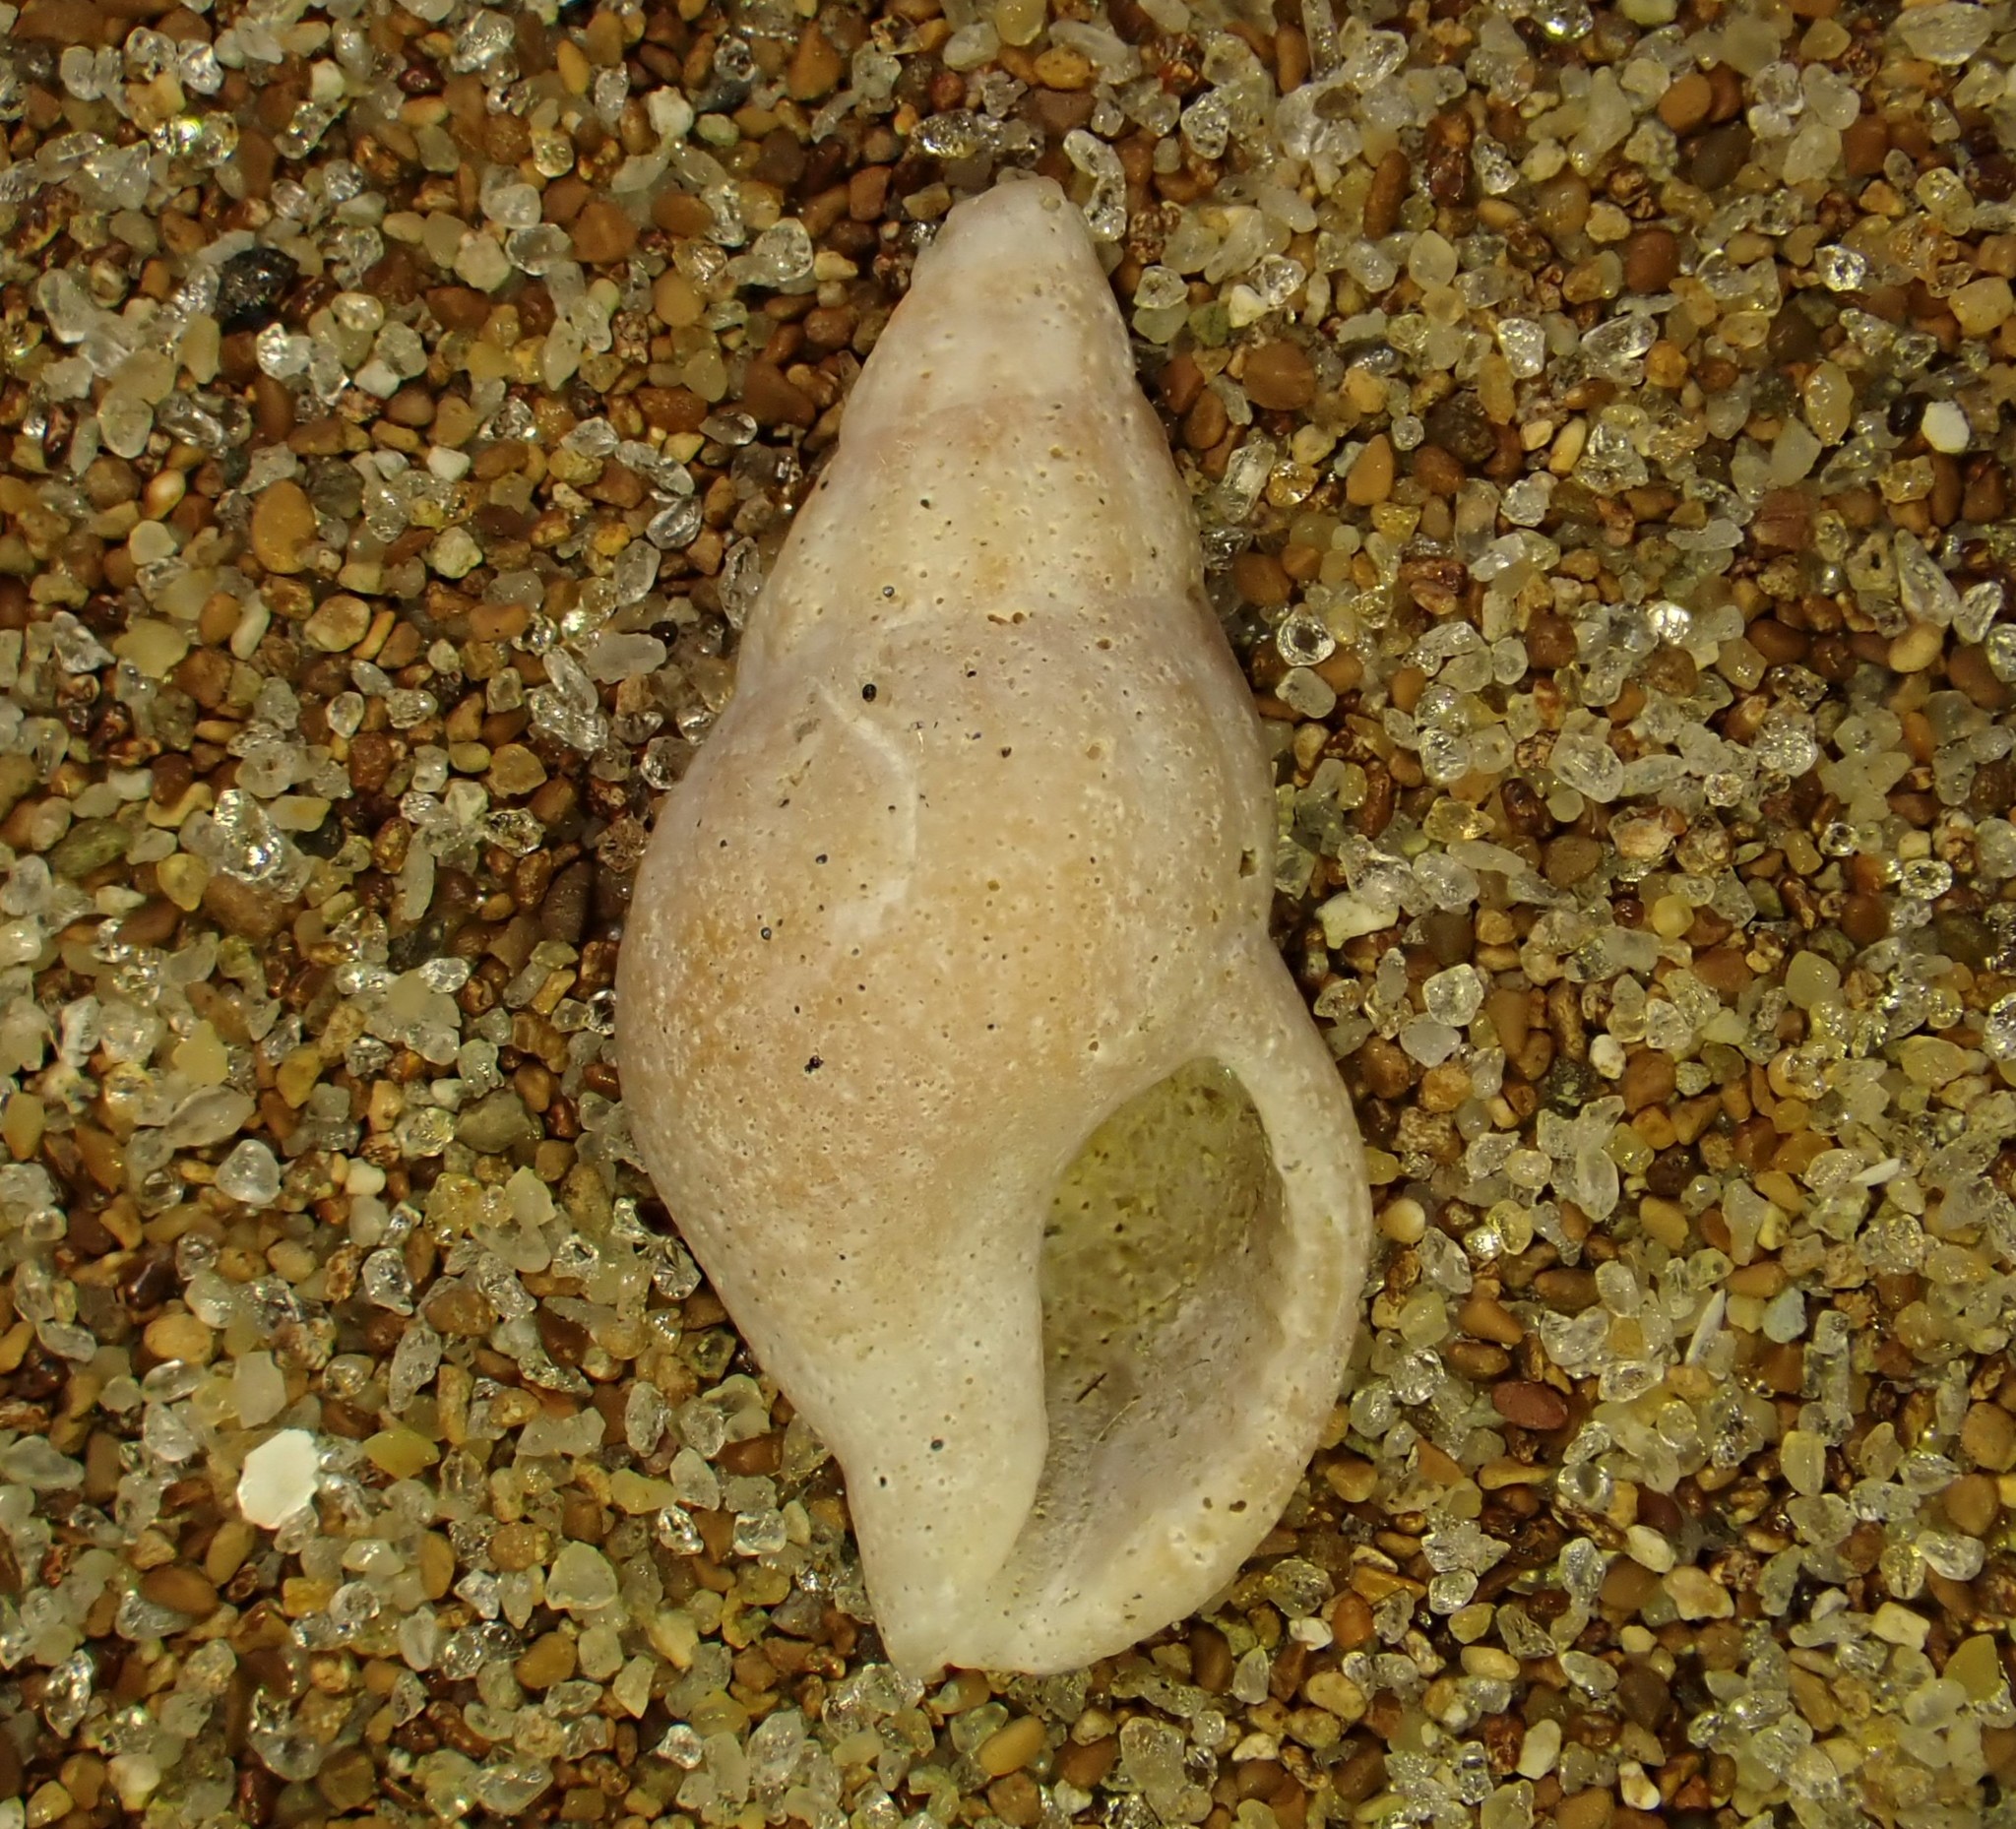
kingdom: Animalia
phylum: Mollusca
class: Gastropoda
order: Neogastropoda
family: Cominellidae
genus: Cominella
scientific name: Cominella accuminata
